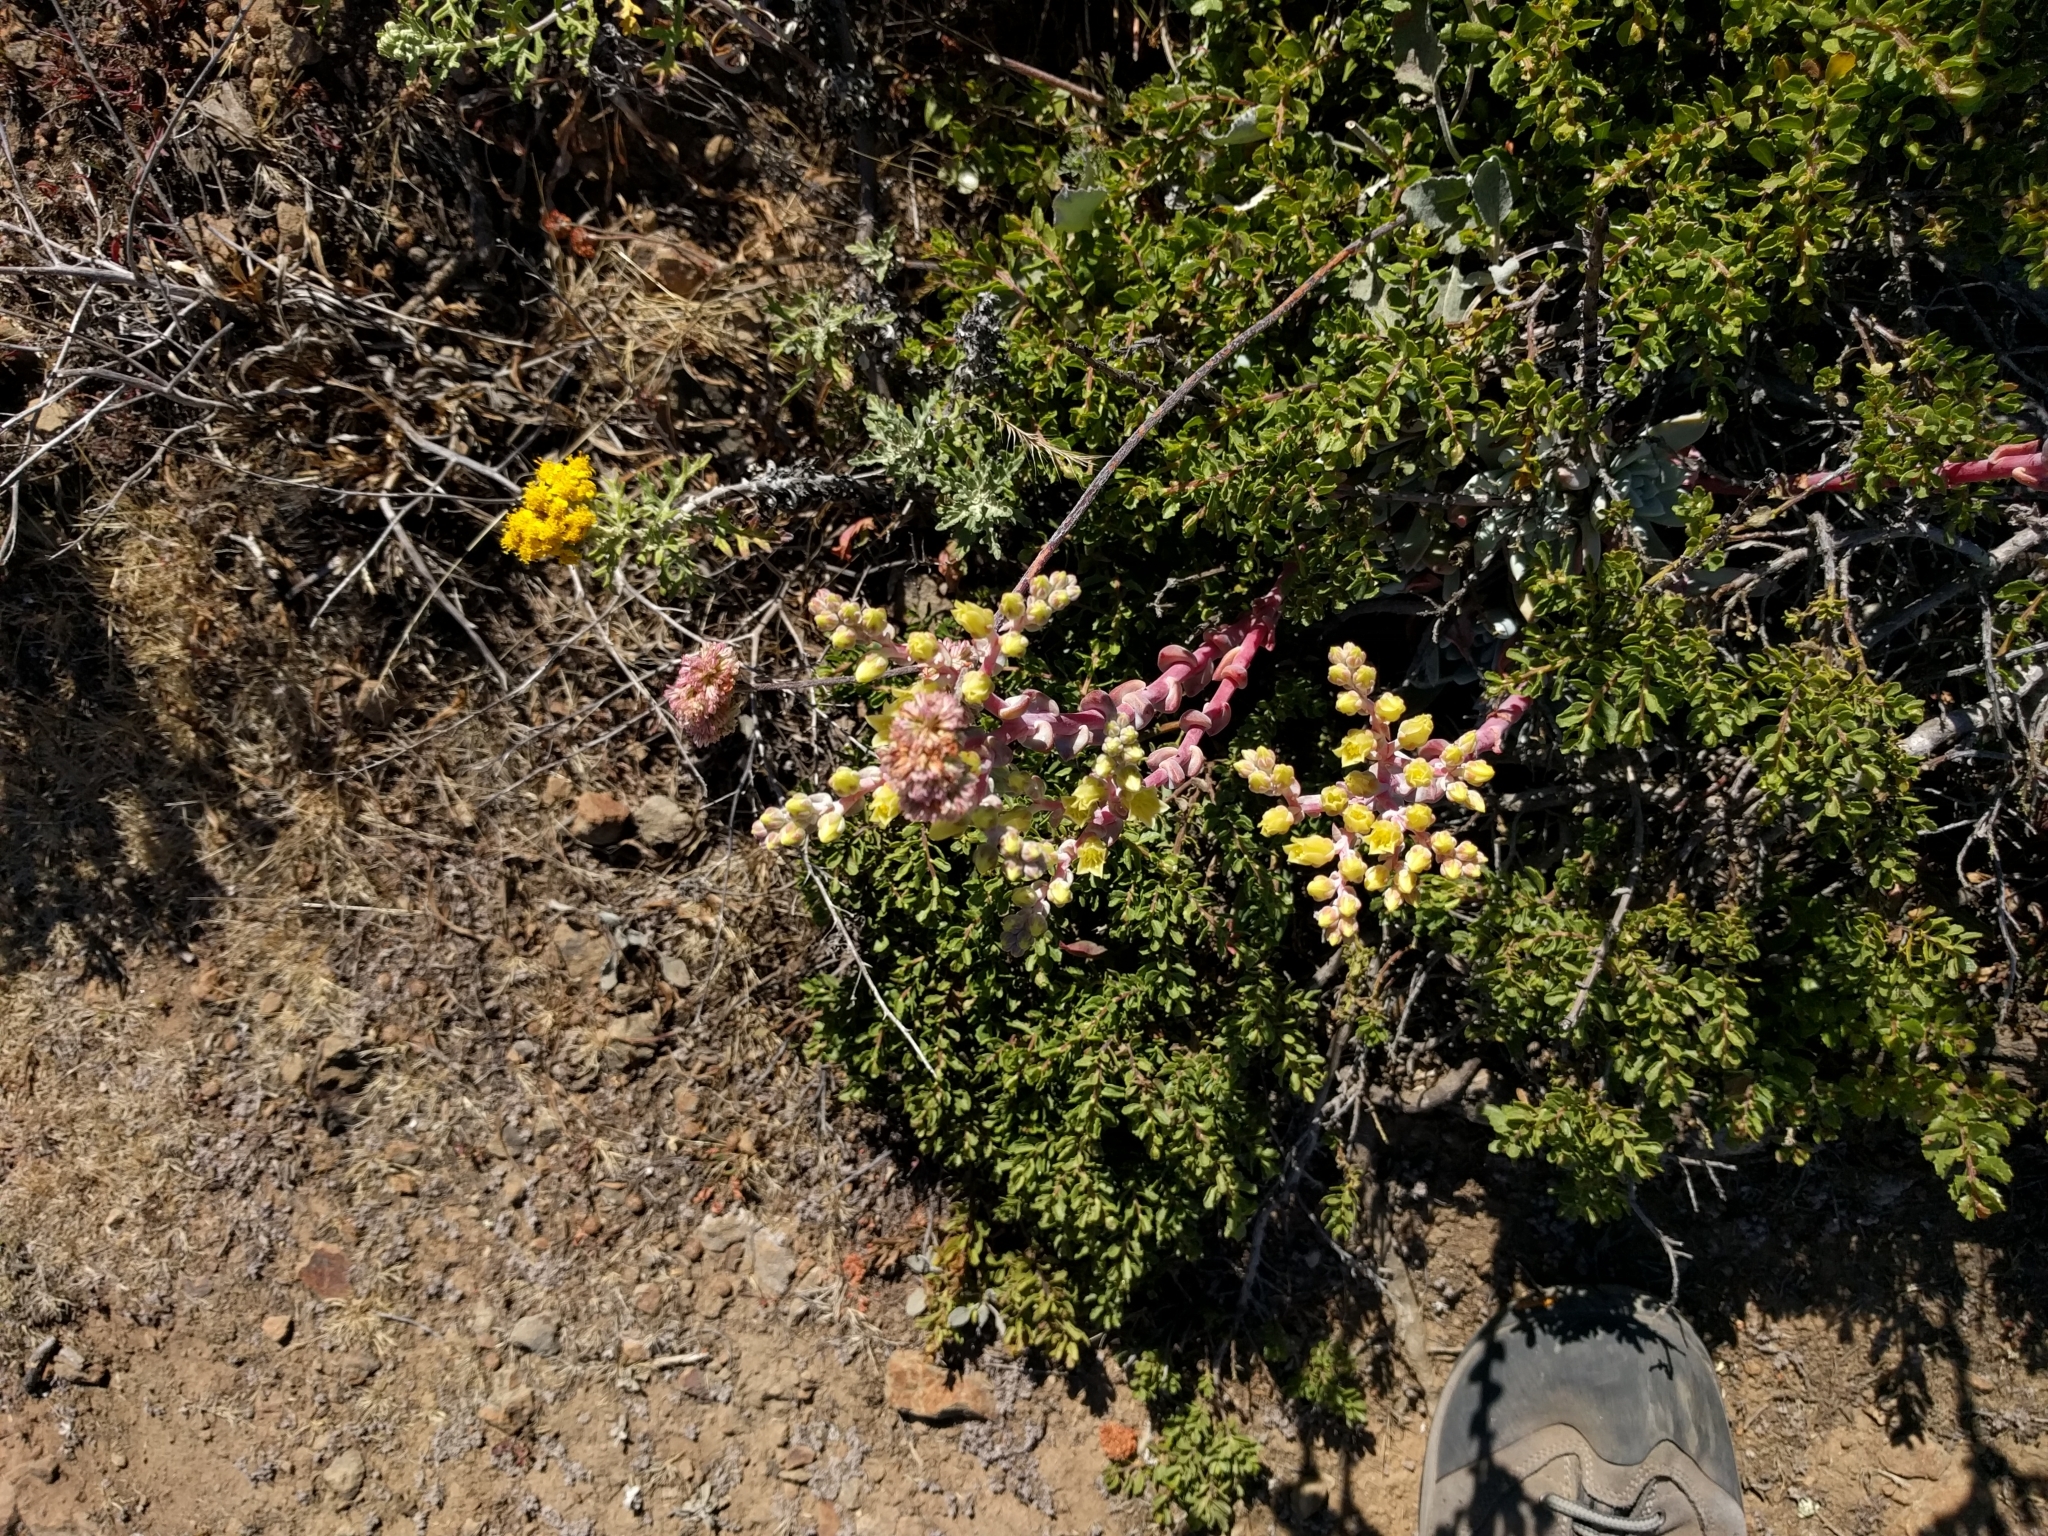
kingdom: Plantae
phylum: Tracheophyta
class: Magnoliopsida
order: Saxifragales
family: Crassulaceae
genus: Dudleya
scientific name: Dudleya farinosa
